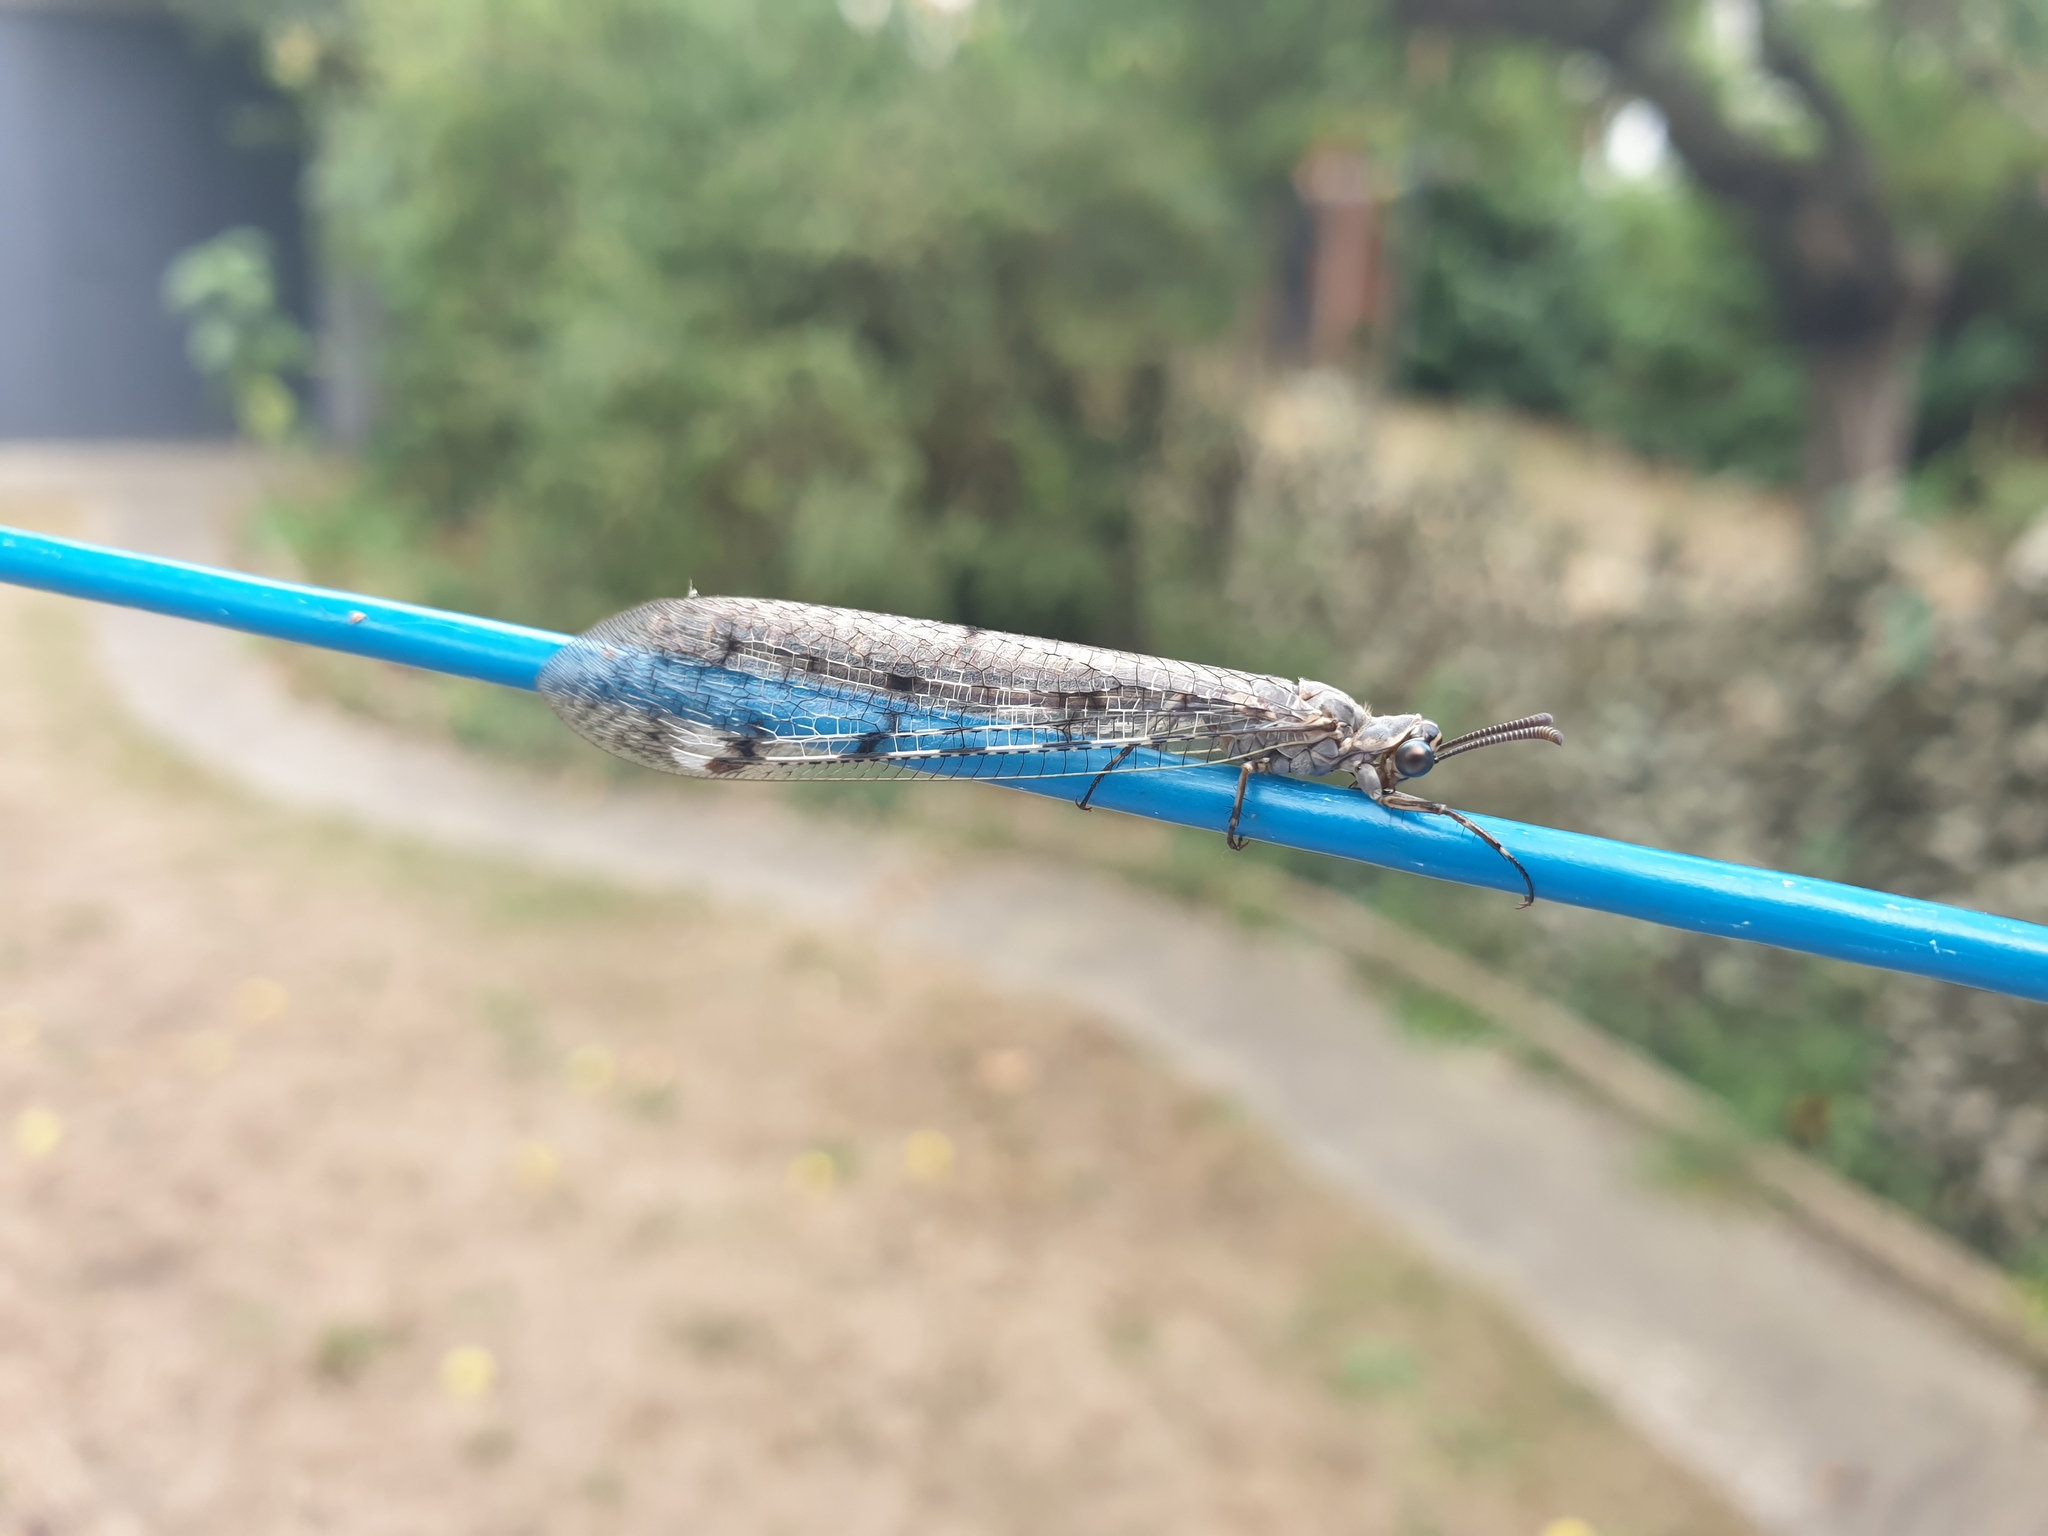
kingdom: Animalia
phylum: Arthropoda
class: Insecta
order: Neuroptera
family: Myrmeleontidae
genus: Euroleon
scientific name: Euroleon nostras
